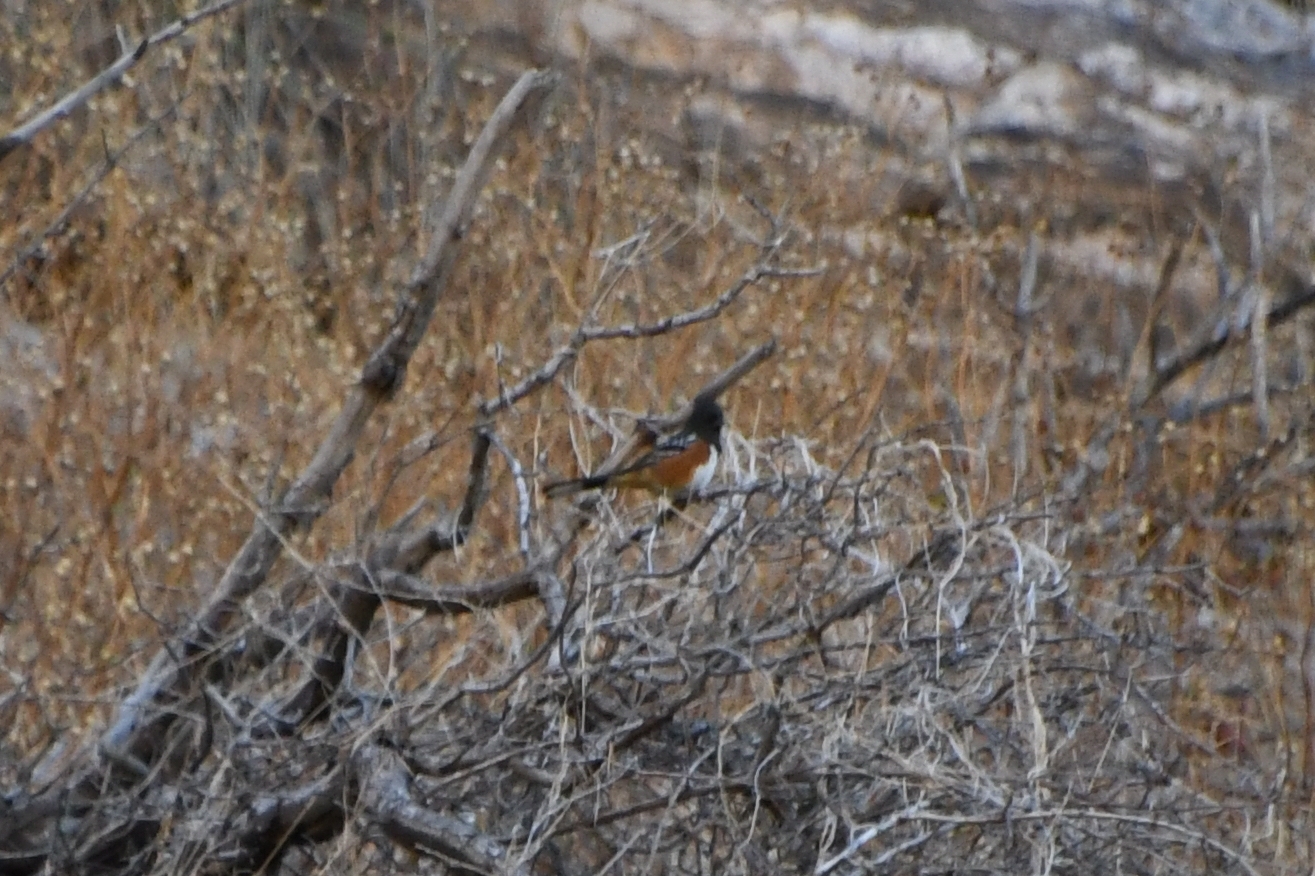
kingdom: Animalia
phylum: Chordata
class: Aves
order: Passeriformes
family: Passerellidae
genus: Pipilo
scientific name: Pipilo maculatus
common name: Spotted towhee
